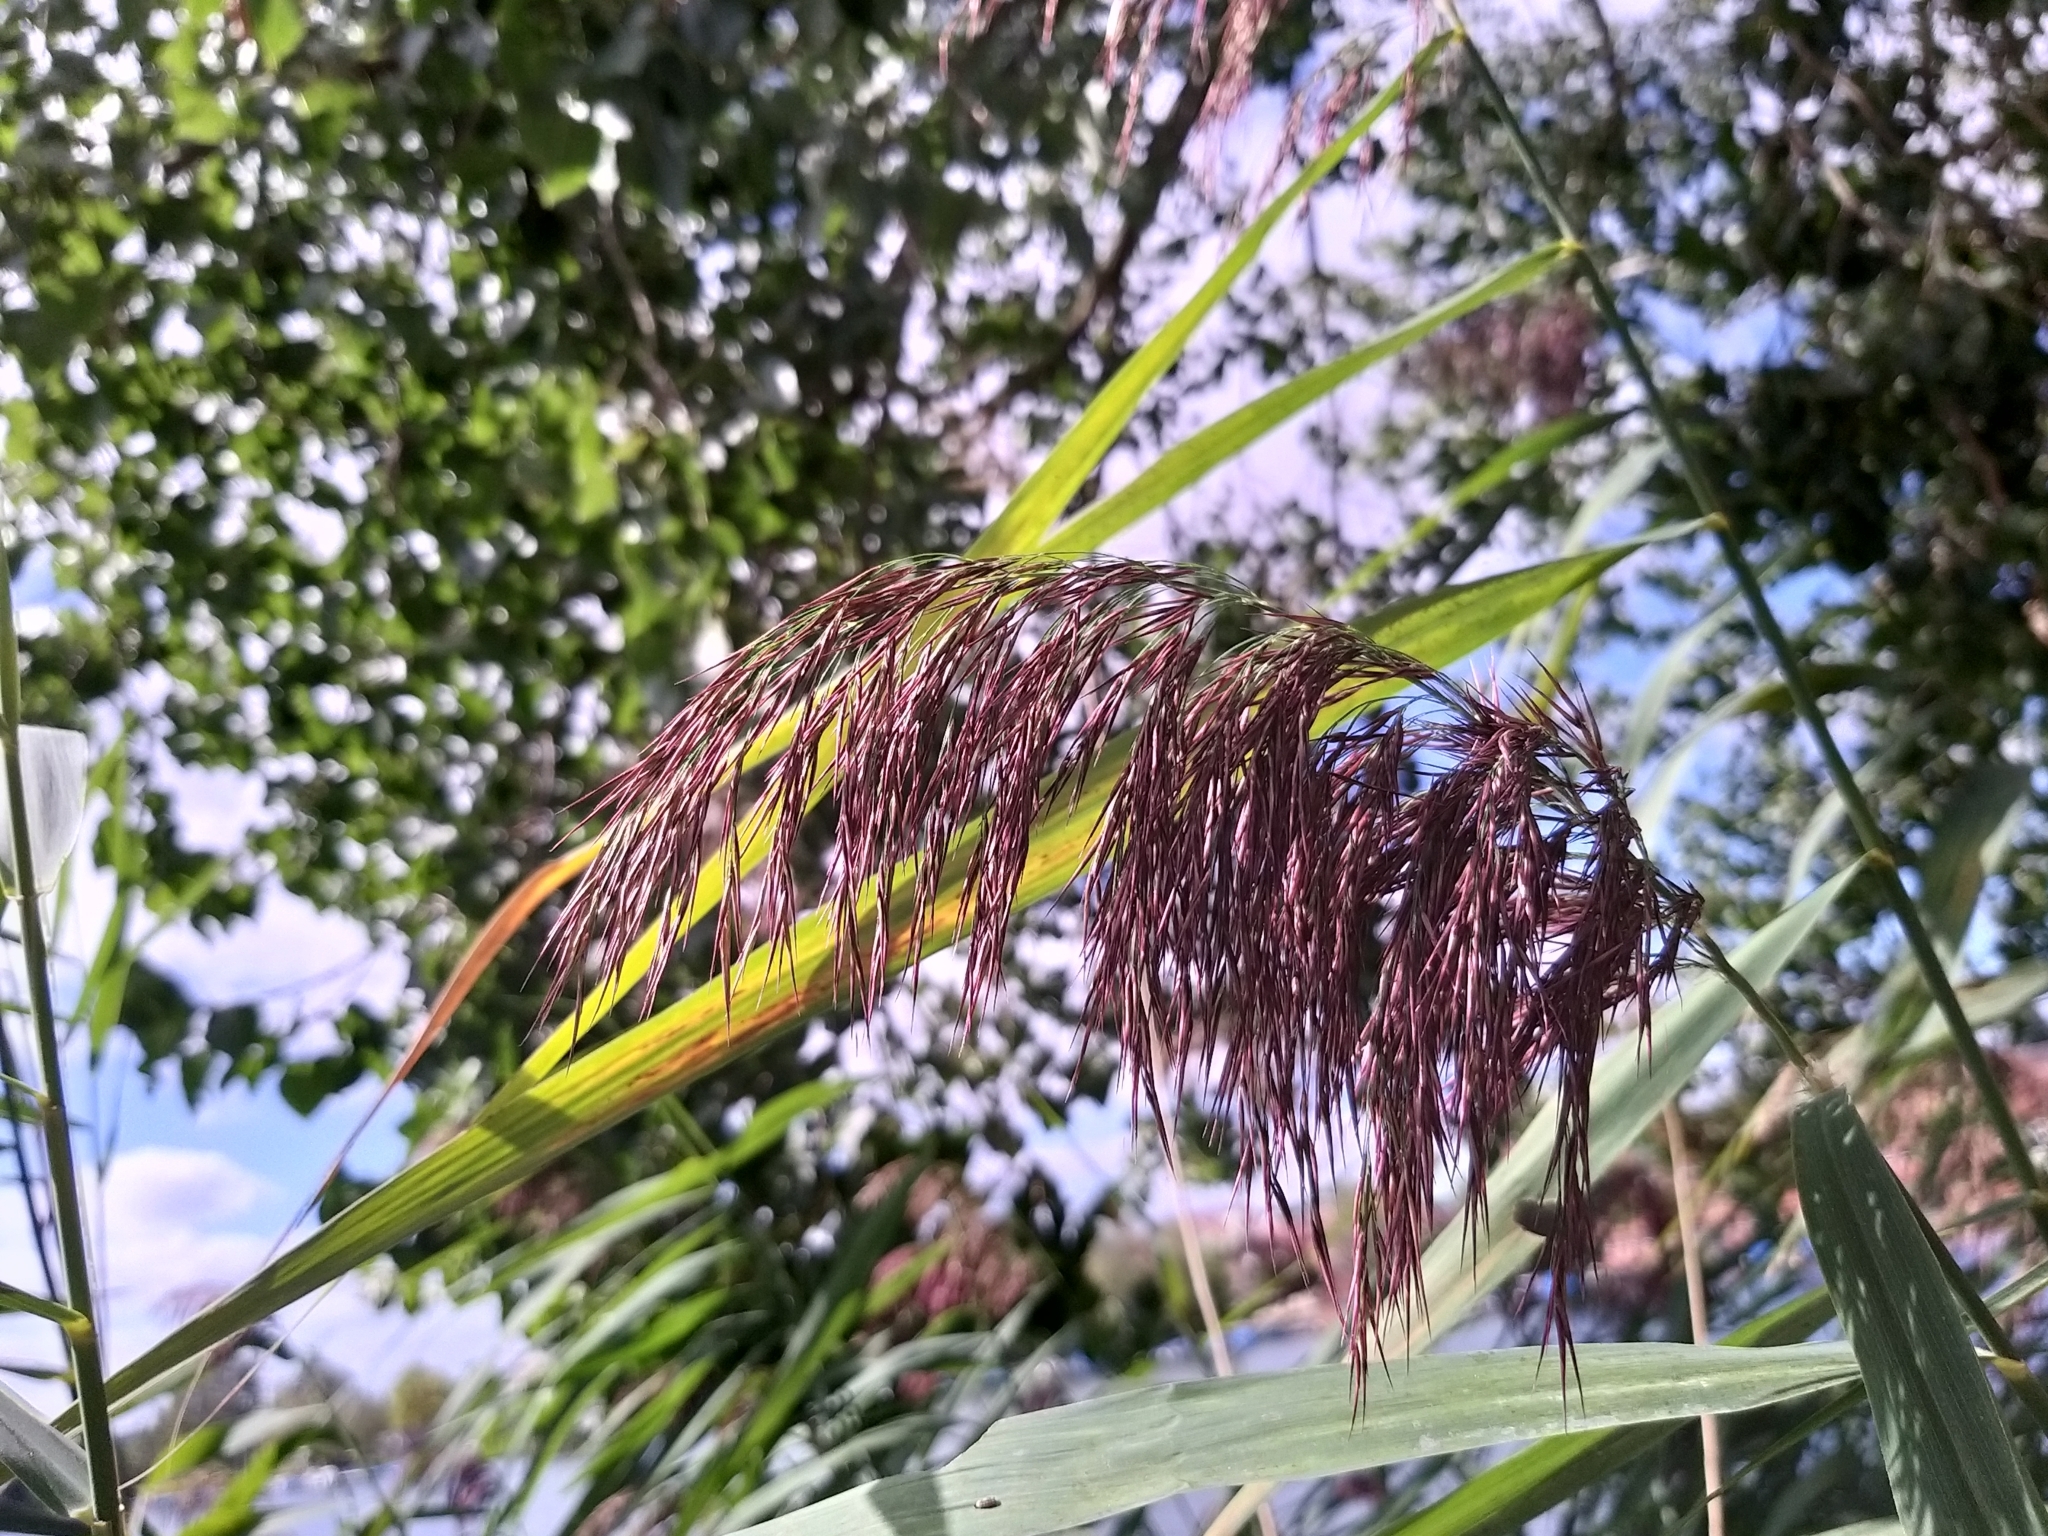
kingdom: Plantae
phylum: Tracheophyta
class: Liliopsida
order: Poales
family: Poaceae
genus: Phragmites
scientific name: Phragmites australis
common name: Common reed
